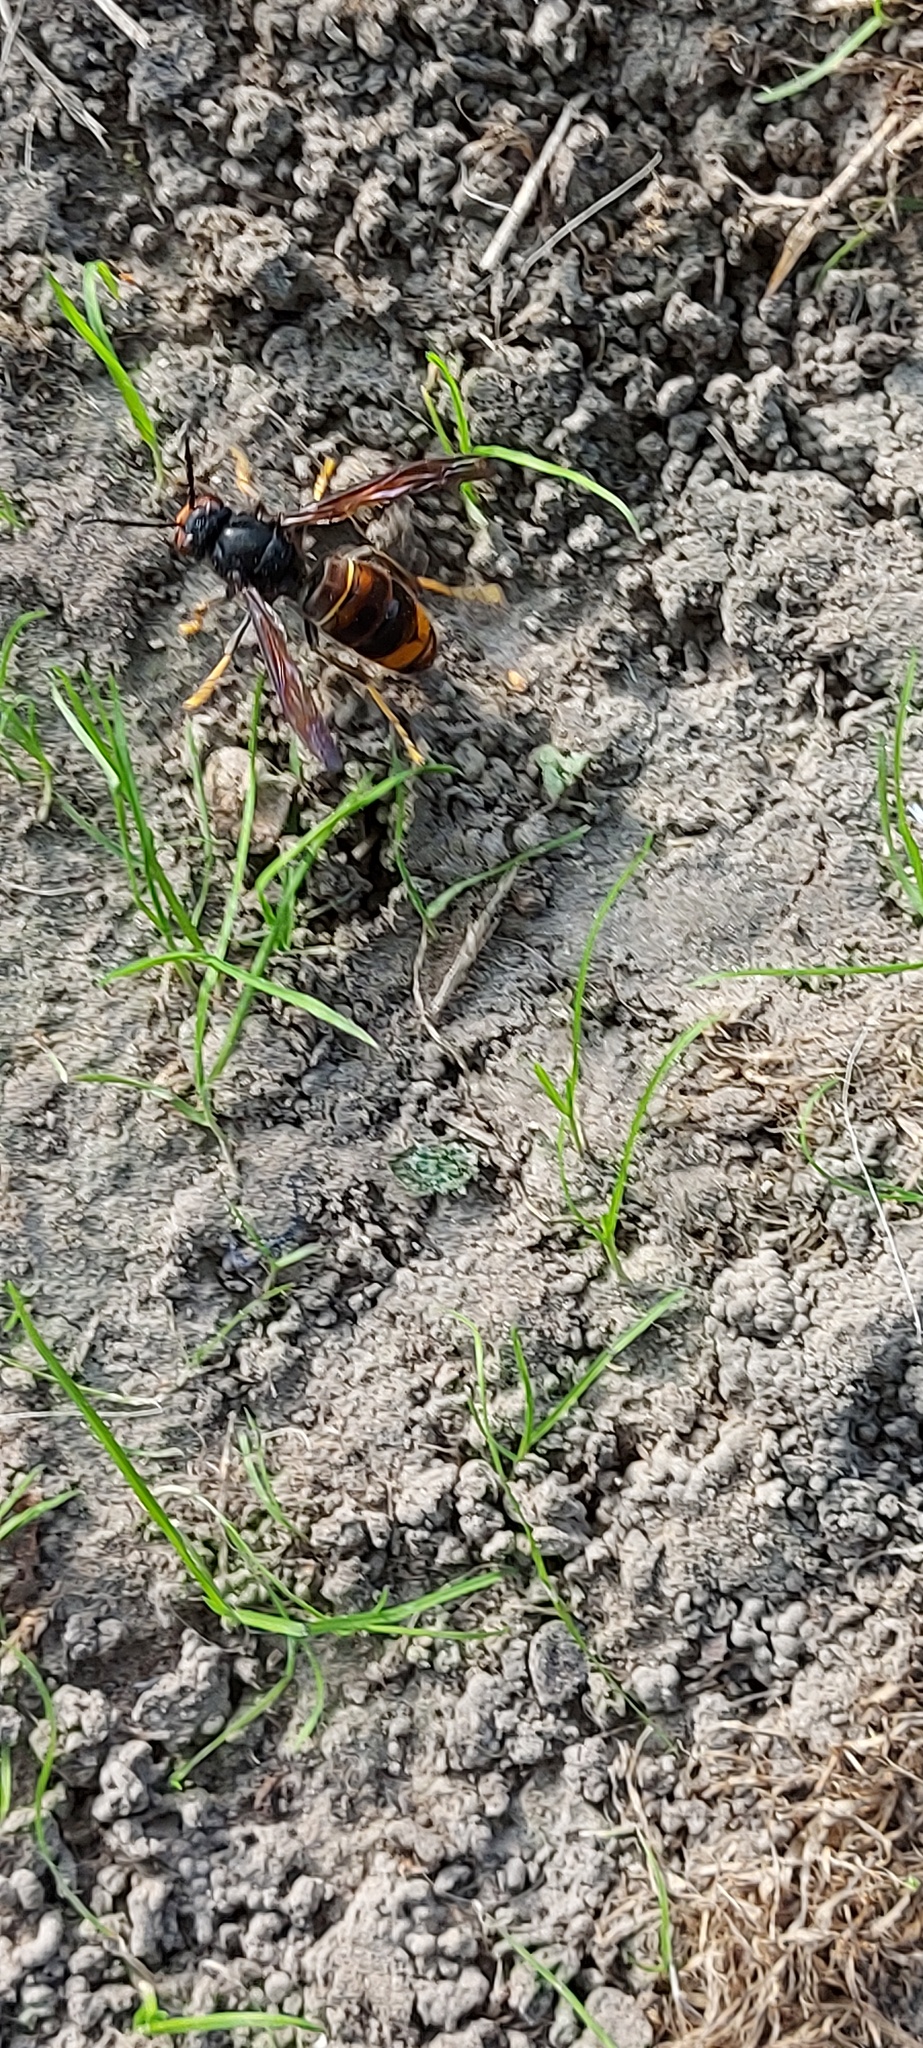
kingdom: Animalia
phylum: Arthropoda
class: Insecta
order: Hymenoptera
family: Vespidae
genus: Vespa
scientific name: Vespa velutina
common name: Asian hornet
